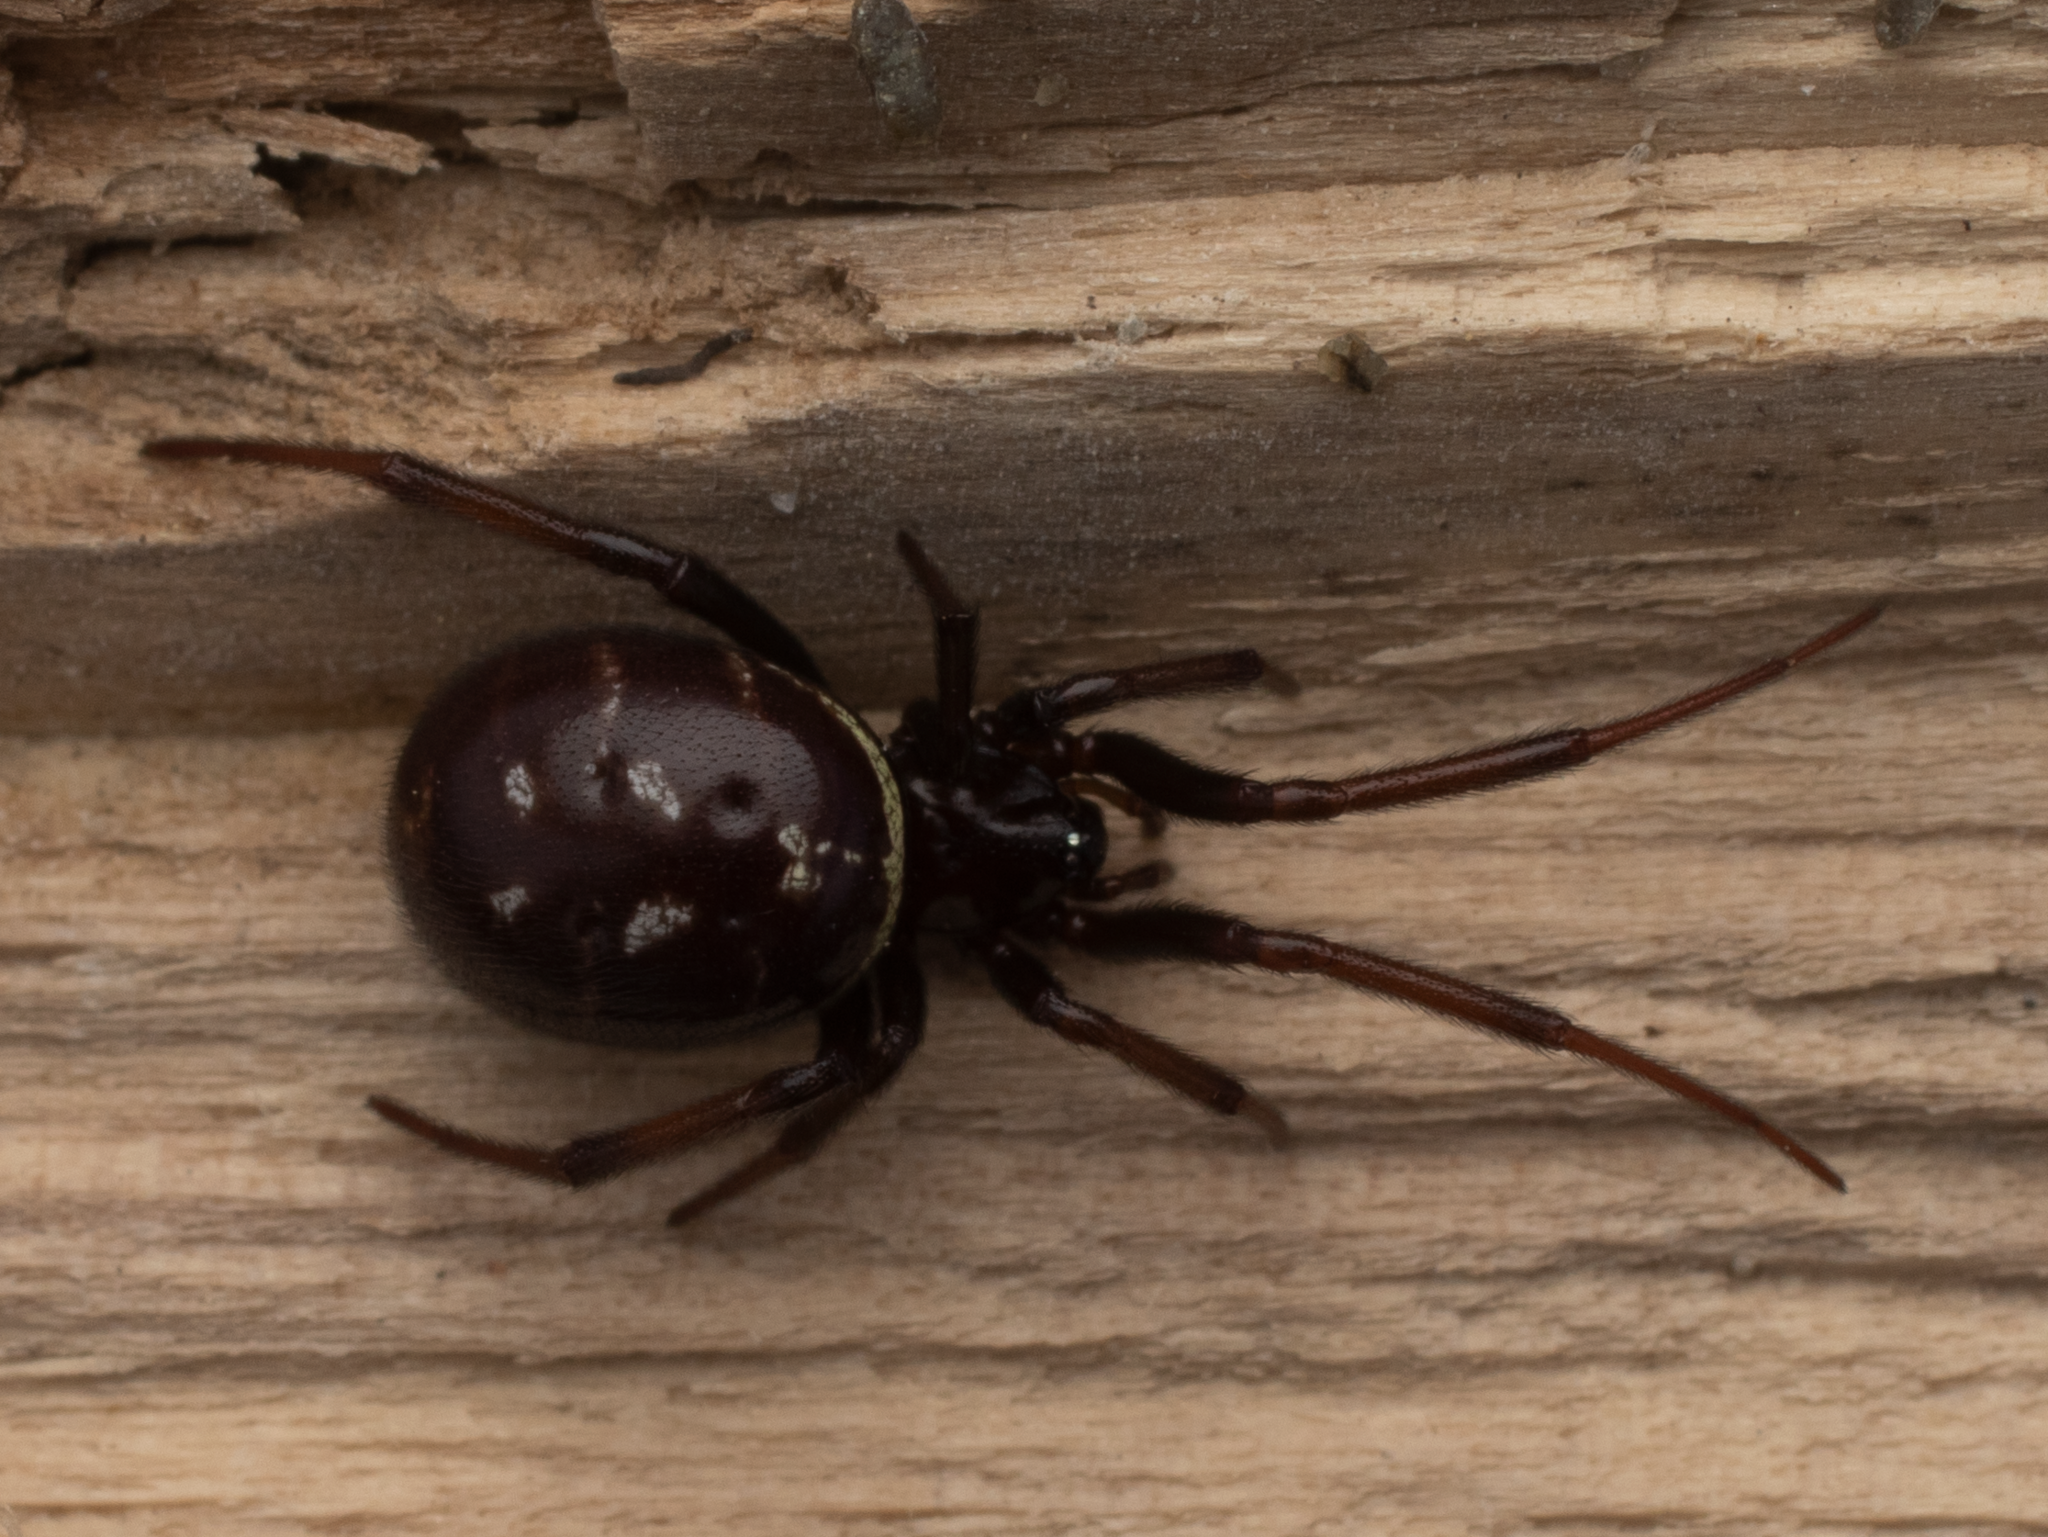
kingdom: Animalia
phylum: Arthropoda
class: Arachnida
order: Araneae
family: Theridiidae
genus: Steatoda
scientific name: Steatoda capensis
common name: Cobweb weaver
